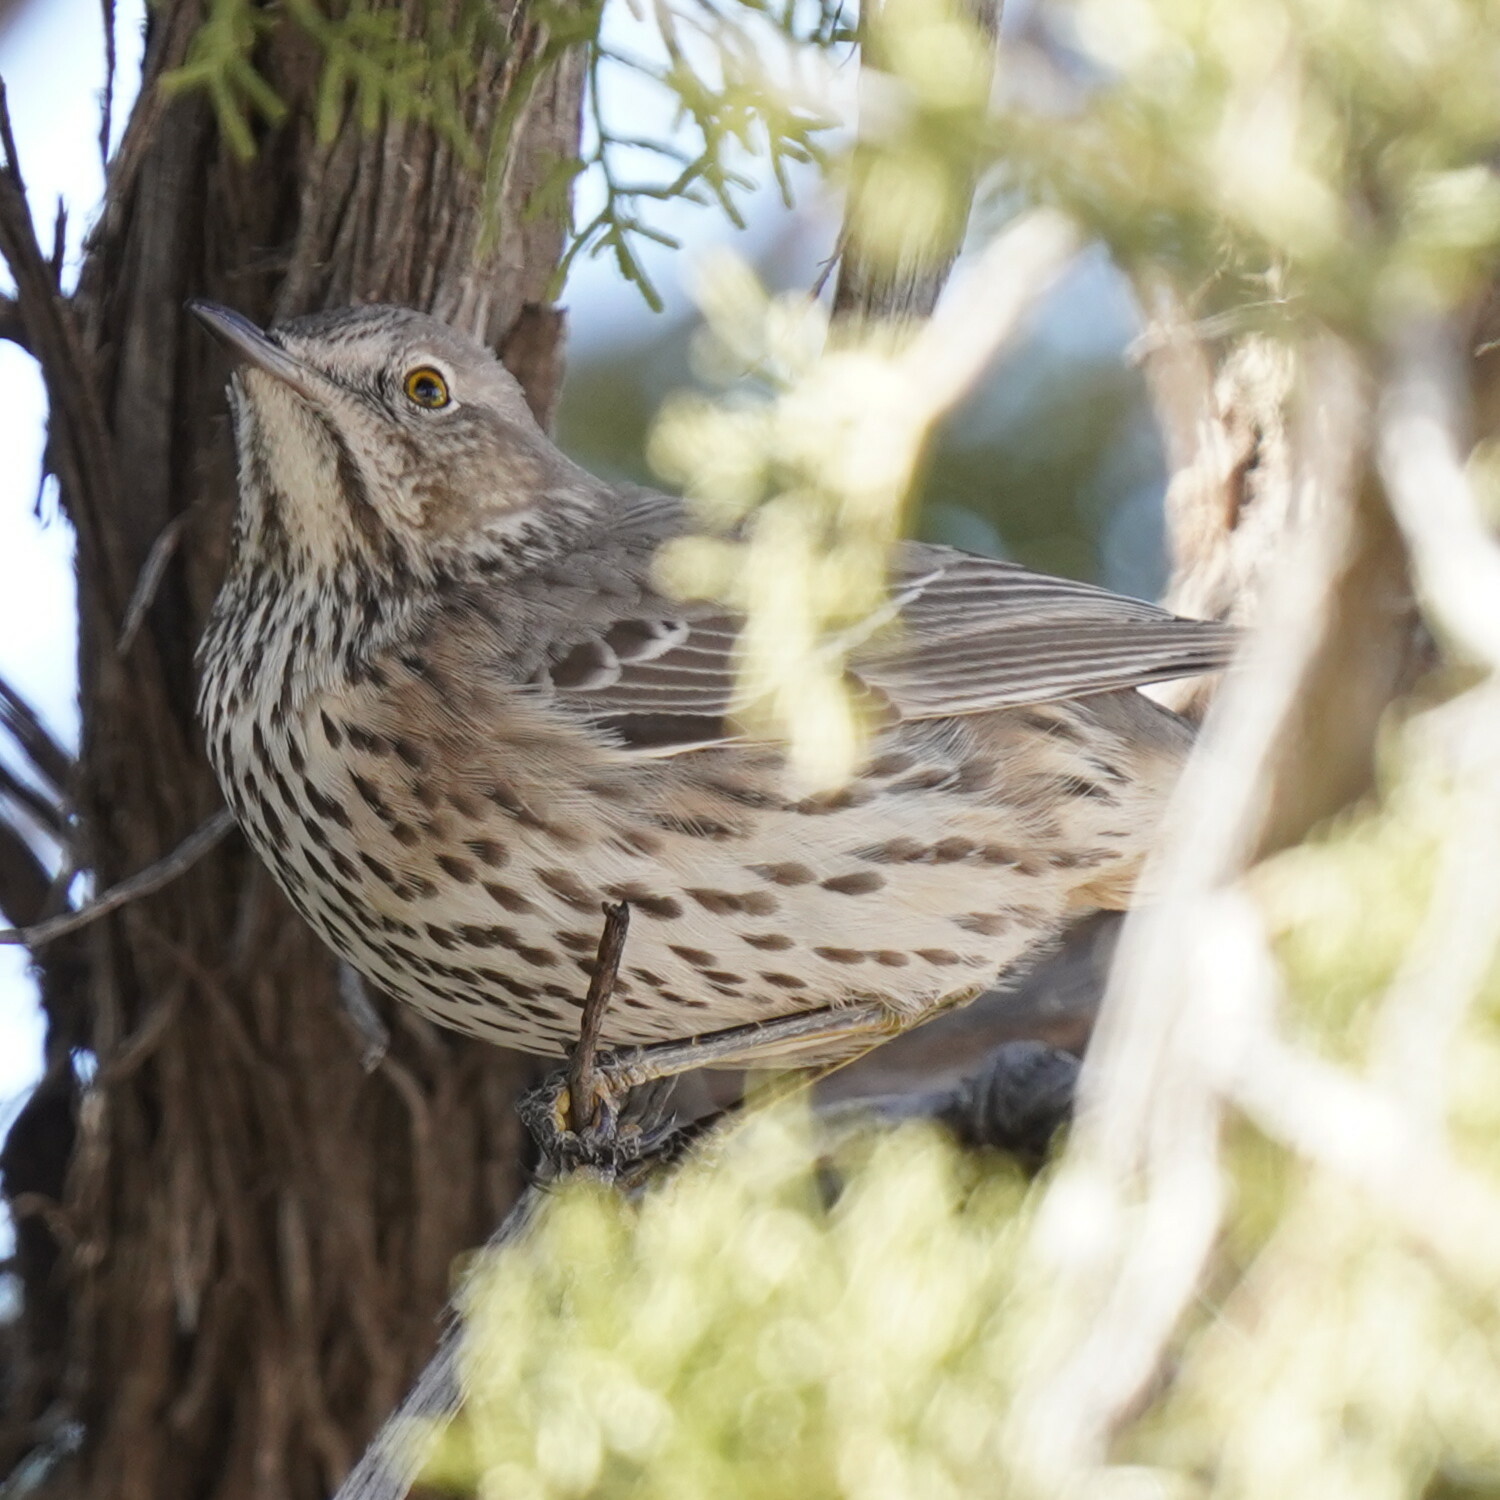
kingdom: Animalia
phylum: Chordata
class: Aves
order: Passeriformes
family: Mimidae
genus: Oreoscoptes
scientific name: Oreoscoptes montanus
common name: Sage thrasher
